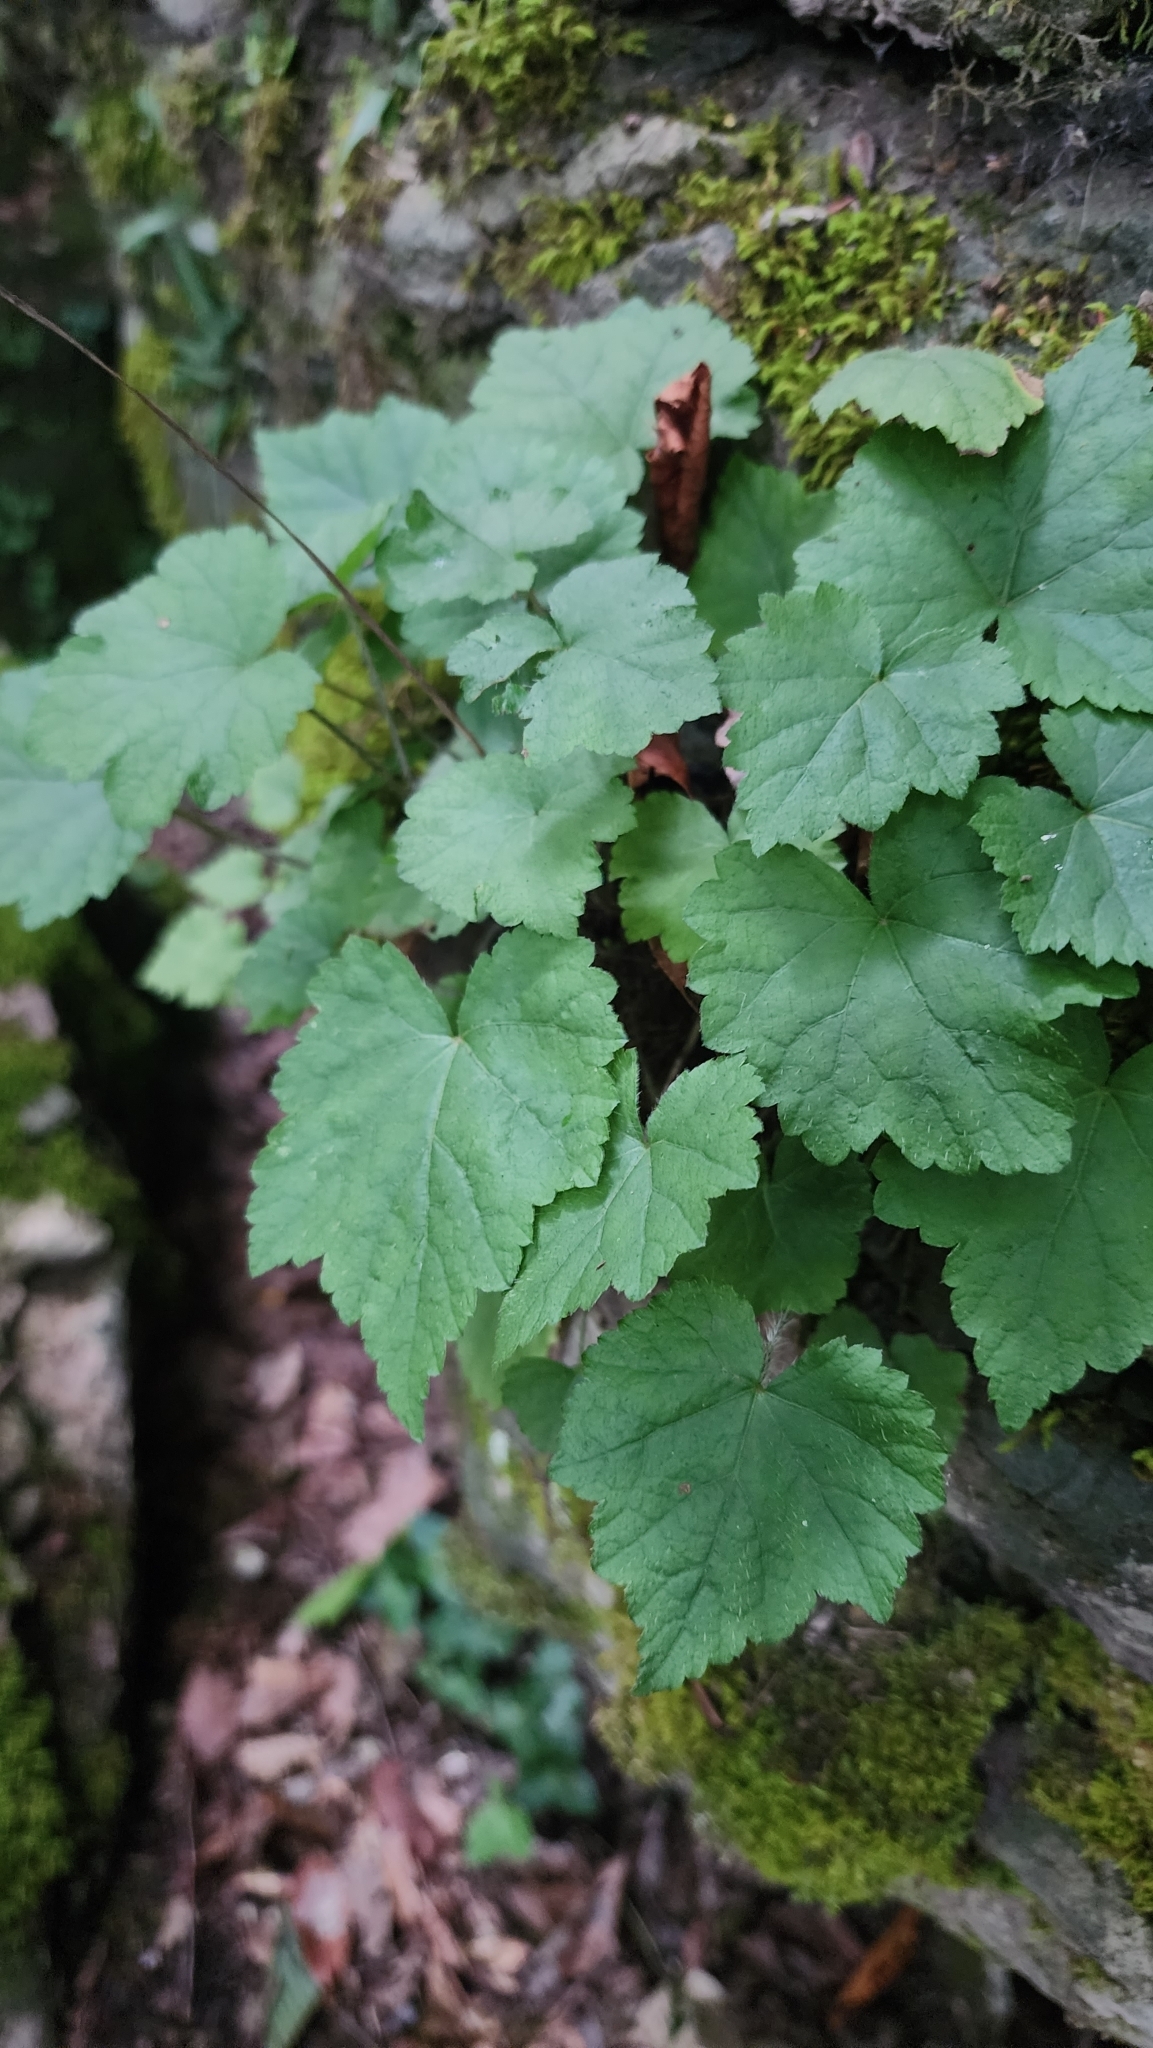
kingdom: Plantae
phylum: Tracheophyta
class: Magnoliopsida
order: Saxifragales
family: Saxifragaceae
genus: Tiarella
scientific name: Tiarella stolonifera
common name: Stoloniferous foamflower
